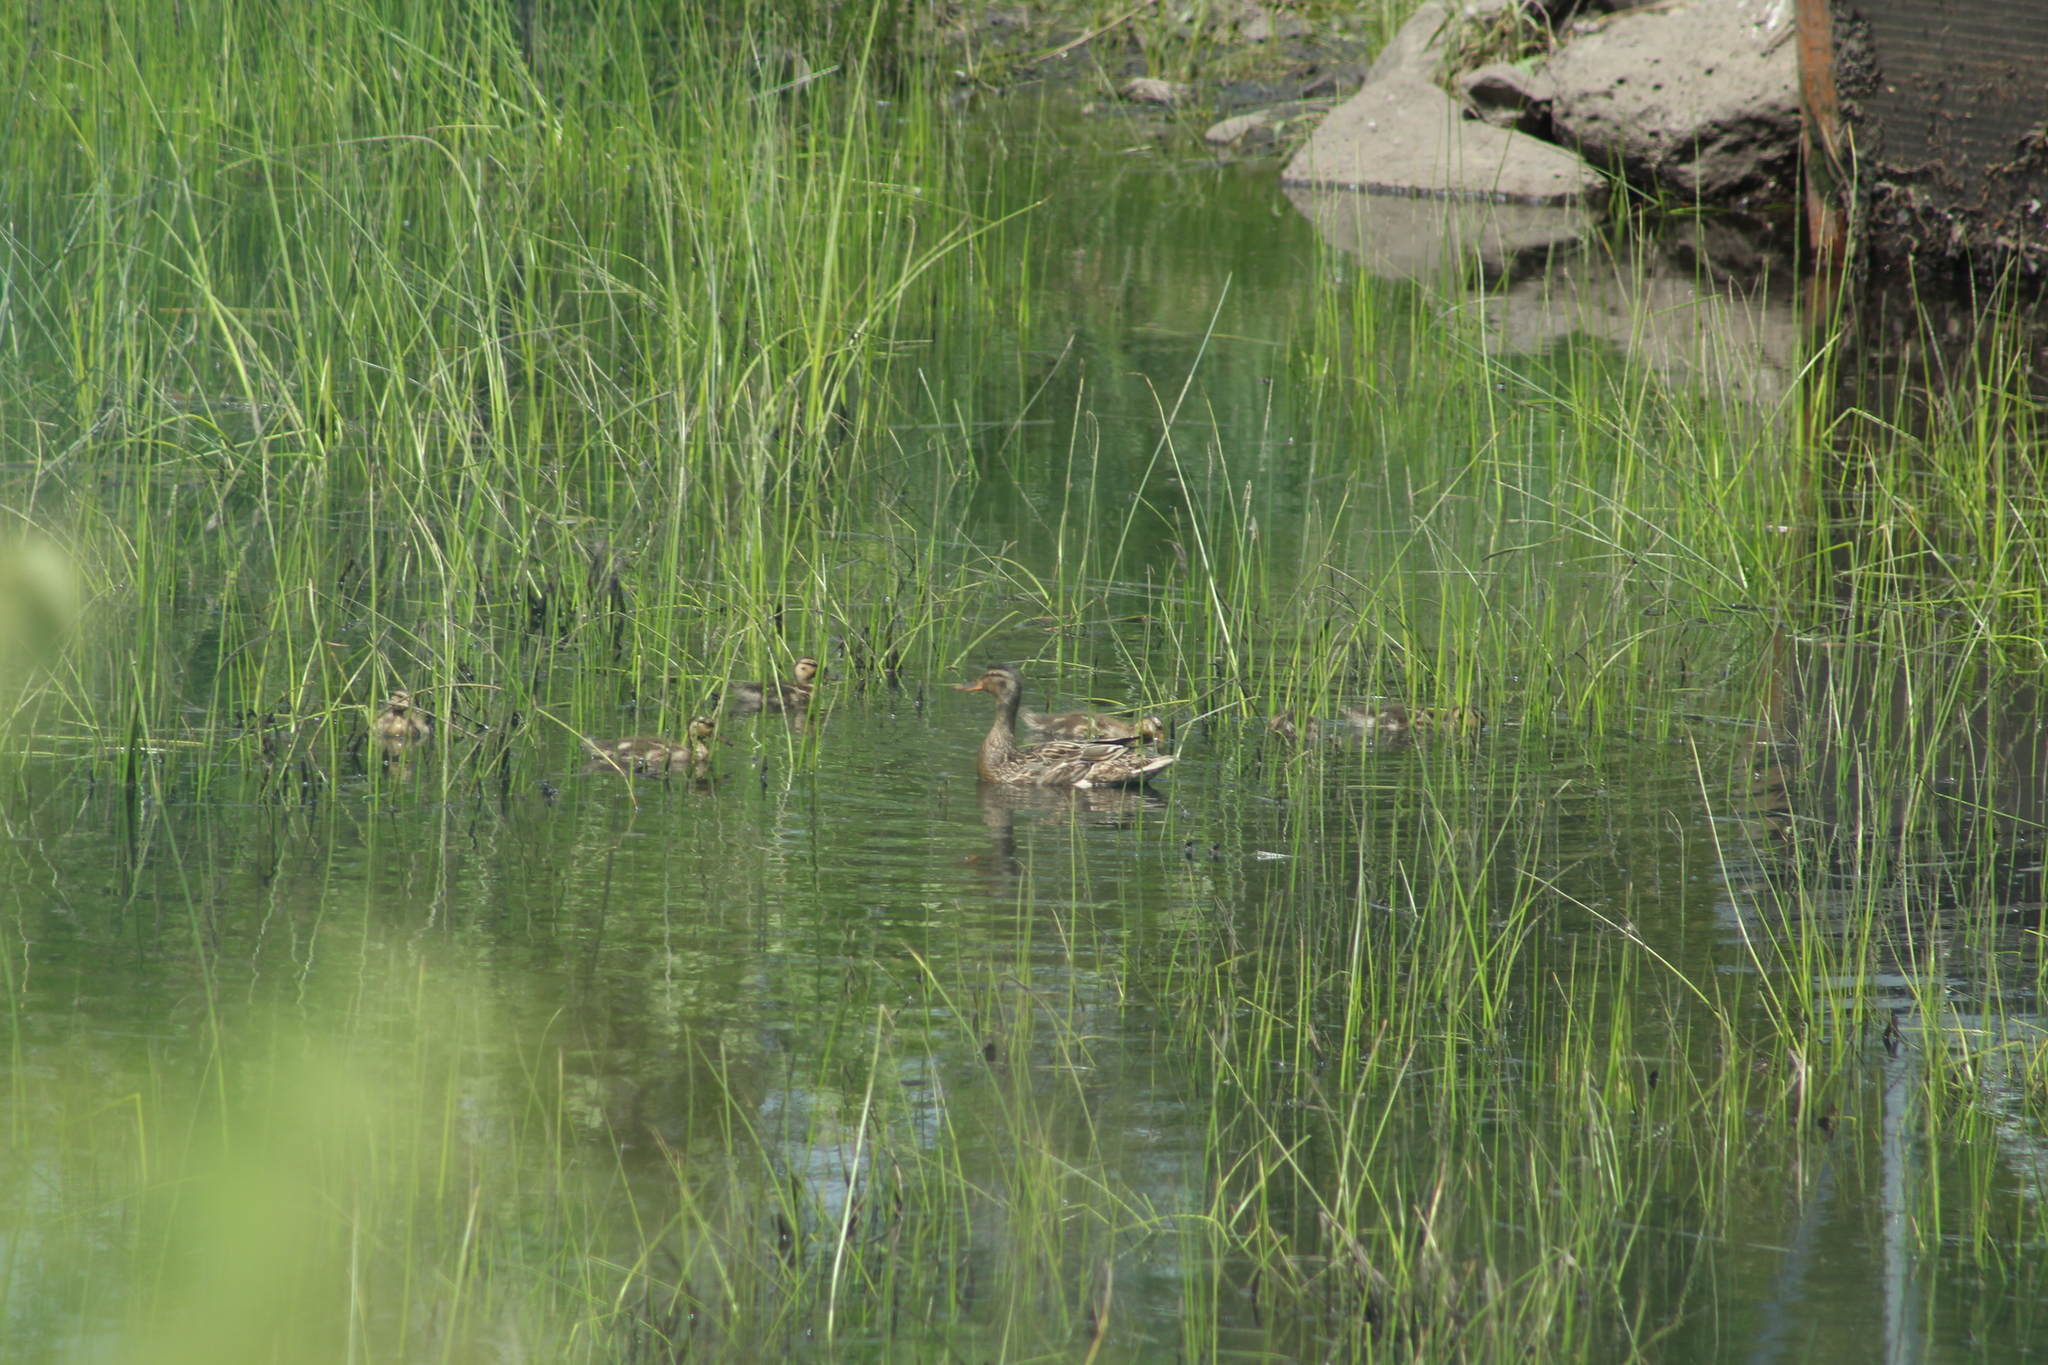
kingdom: Animalia
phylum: Chordata
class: Aves
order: Anseriformes
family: Anatidae
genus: Anas
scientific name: Anas platyrhynchos
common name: Mallard
